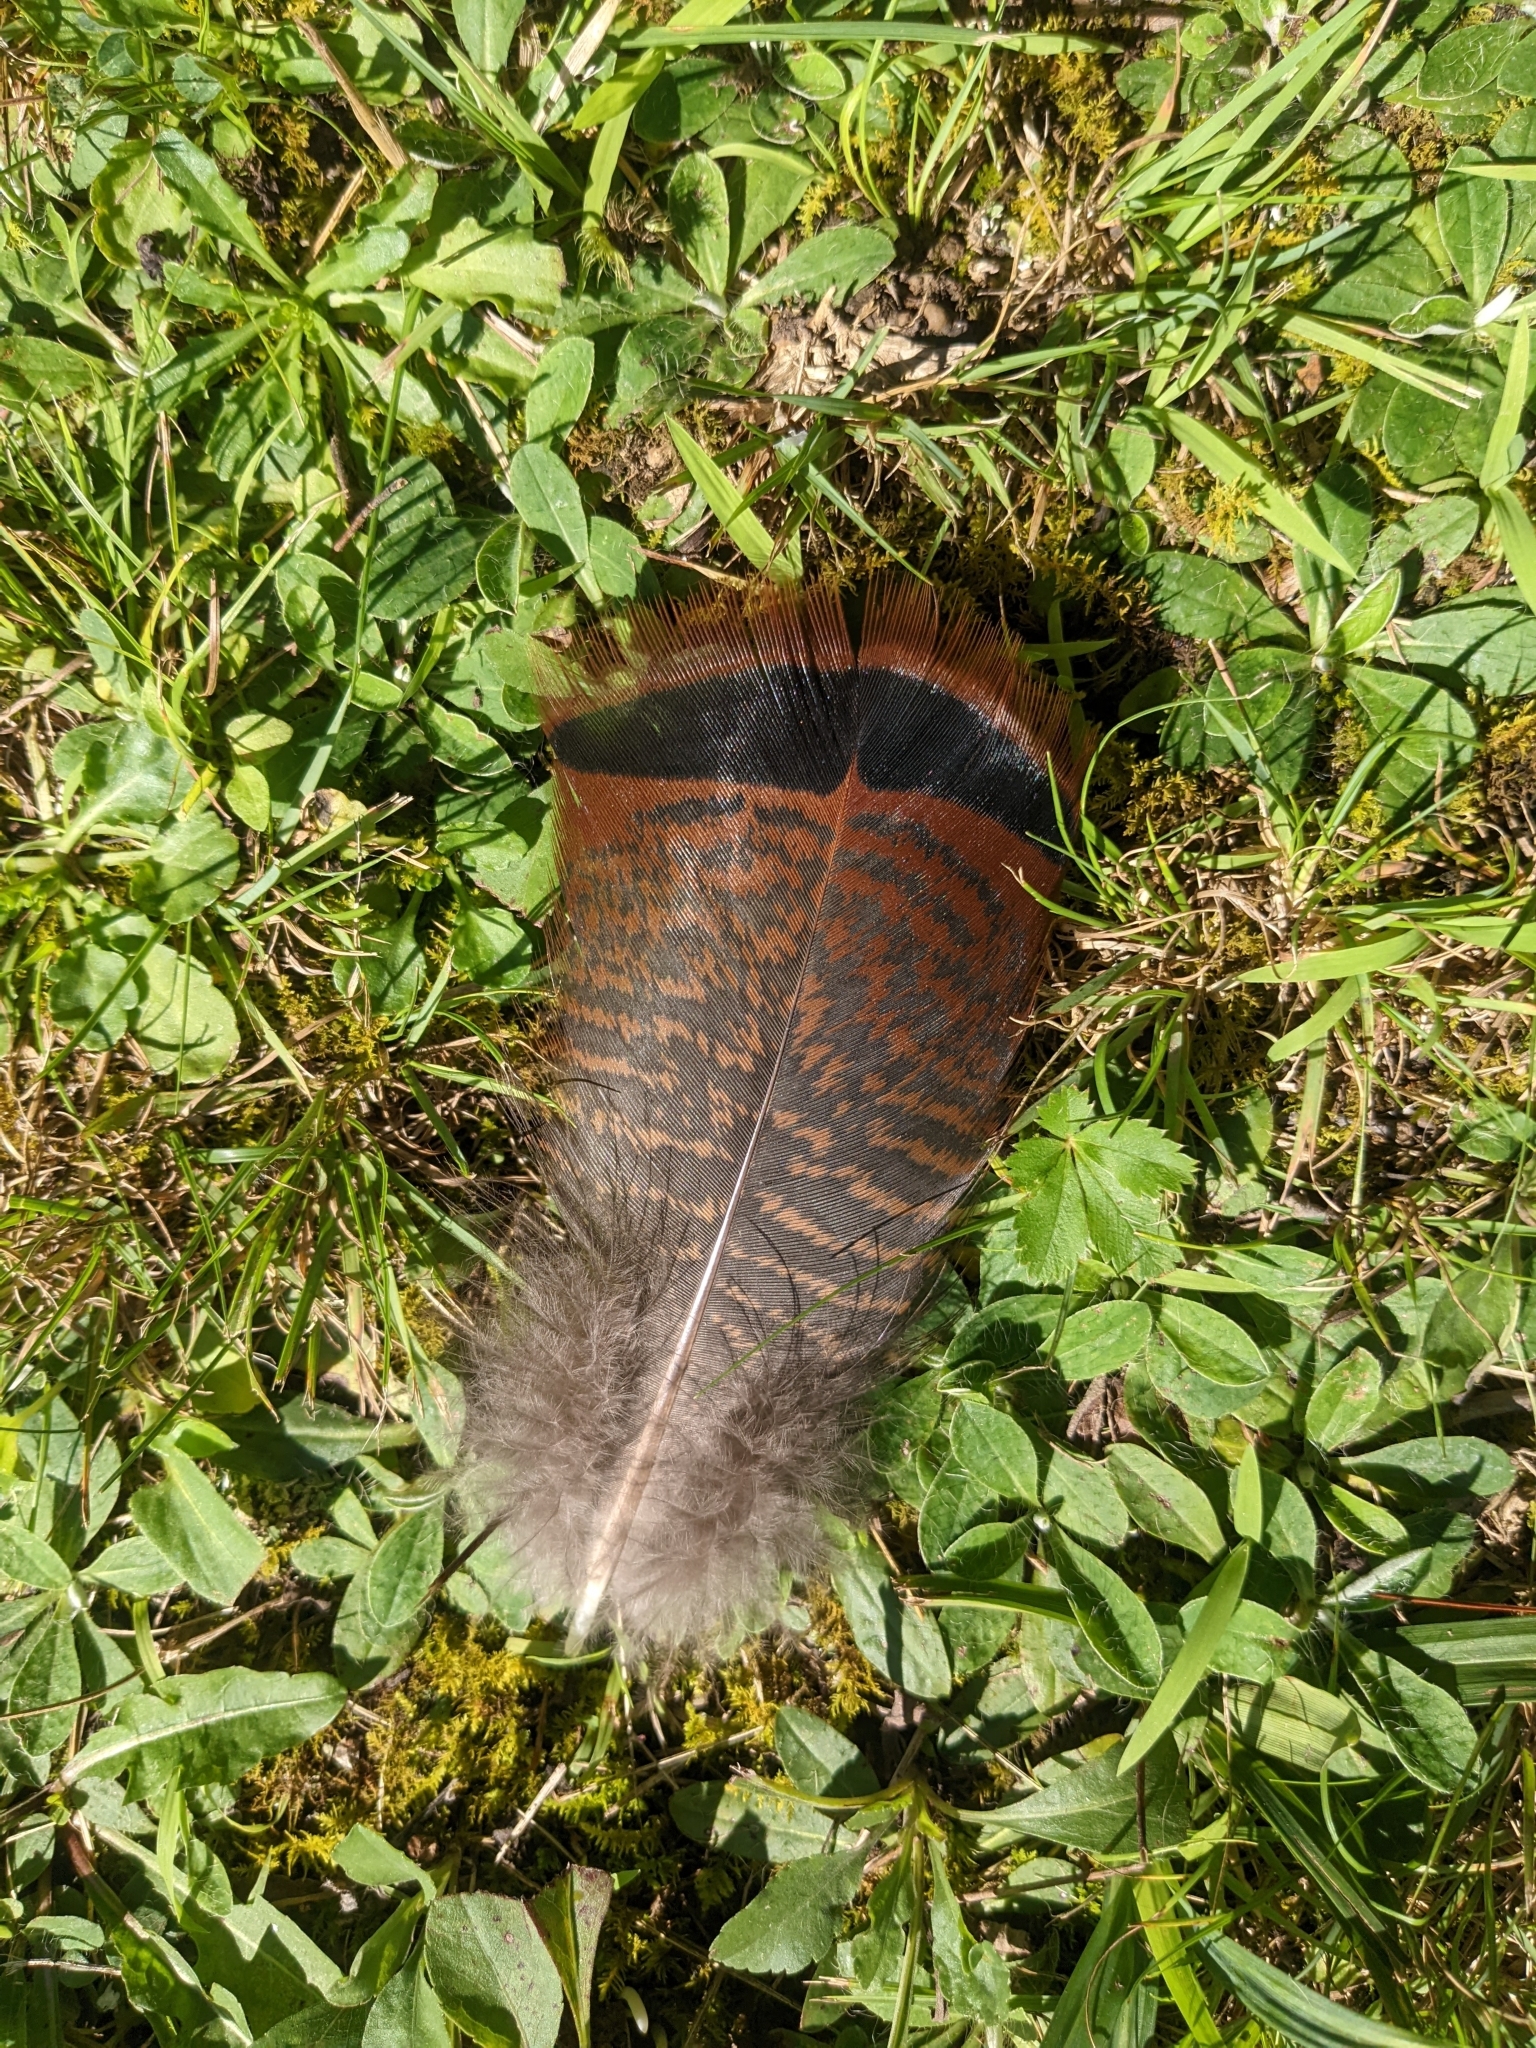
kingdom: Animalia
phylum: Chordata
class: Aves
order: Galliformes
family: Phasianidae
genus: Meleagris
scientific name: Meleagris gallopavo
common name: Wild turkey
